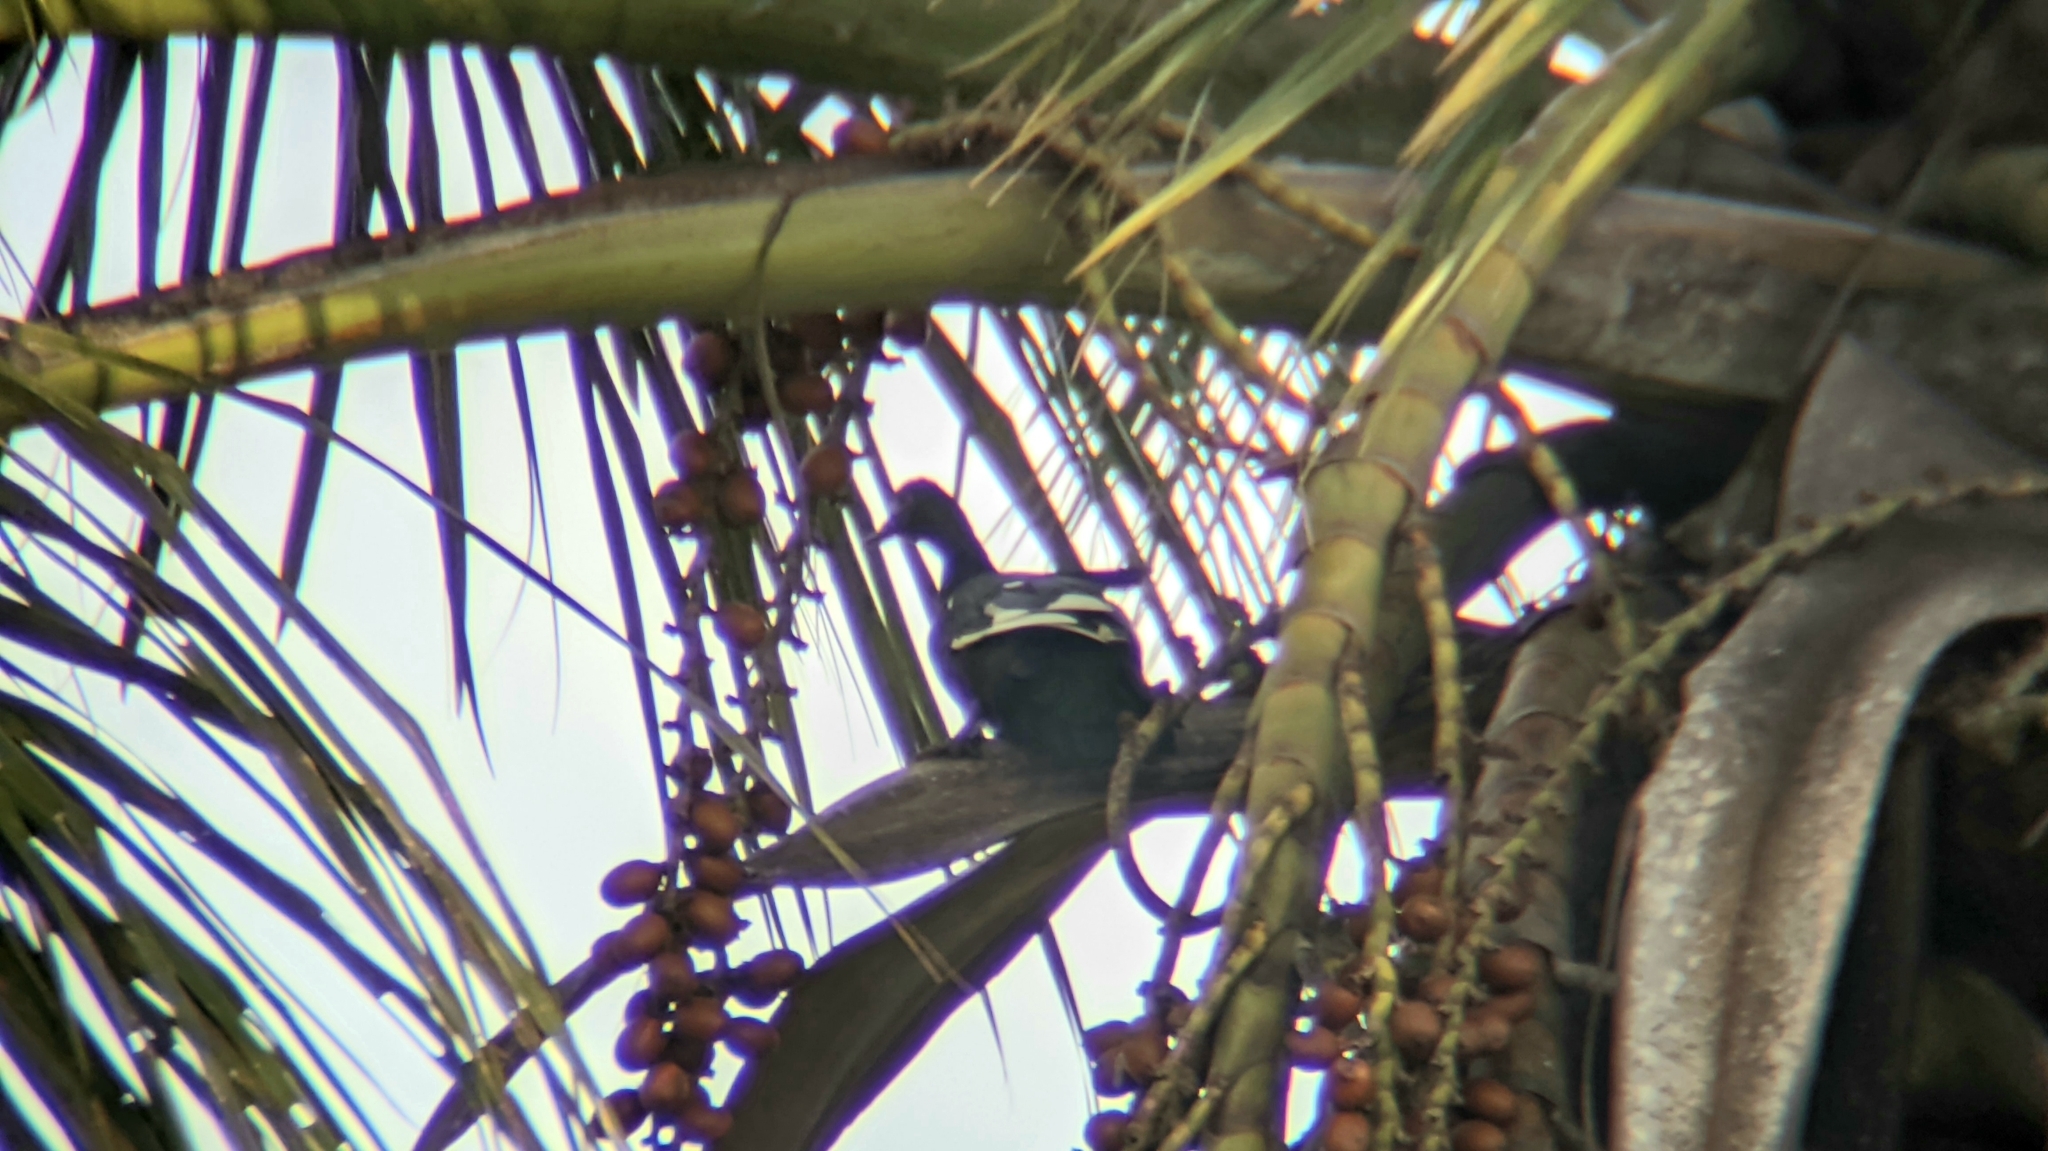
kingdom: Animalia
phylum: Chordata
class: Aves
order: Anseriformes
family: Anatidae
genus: Cairina
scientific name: Cairina moschata
